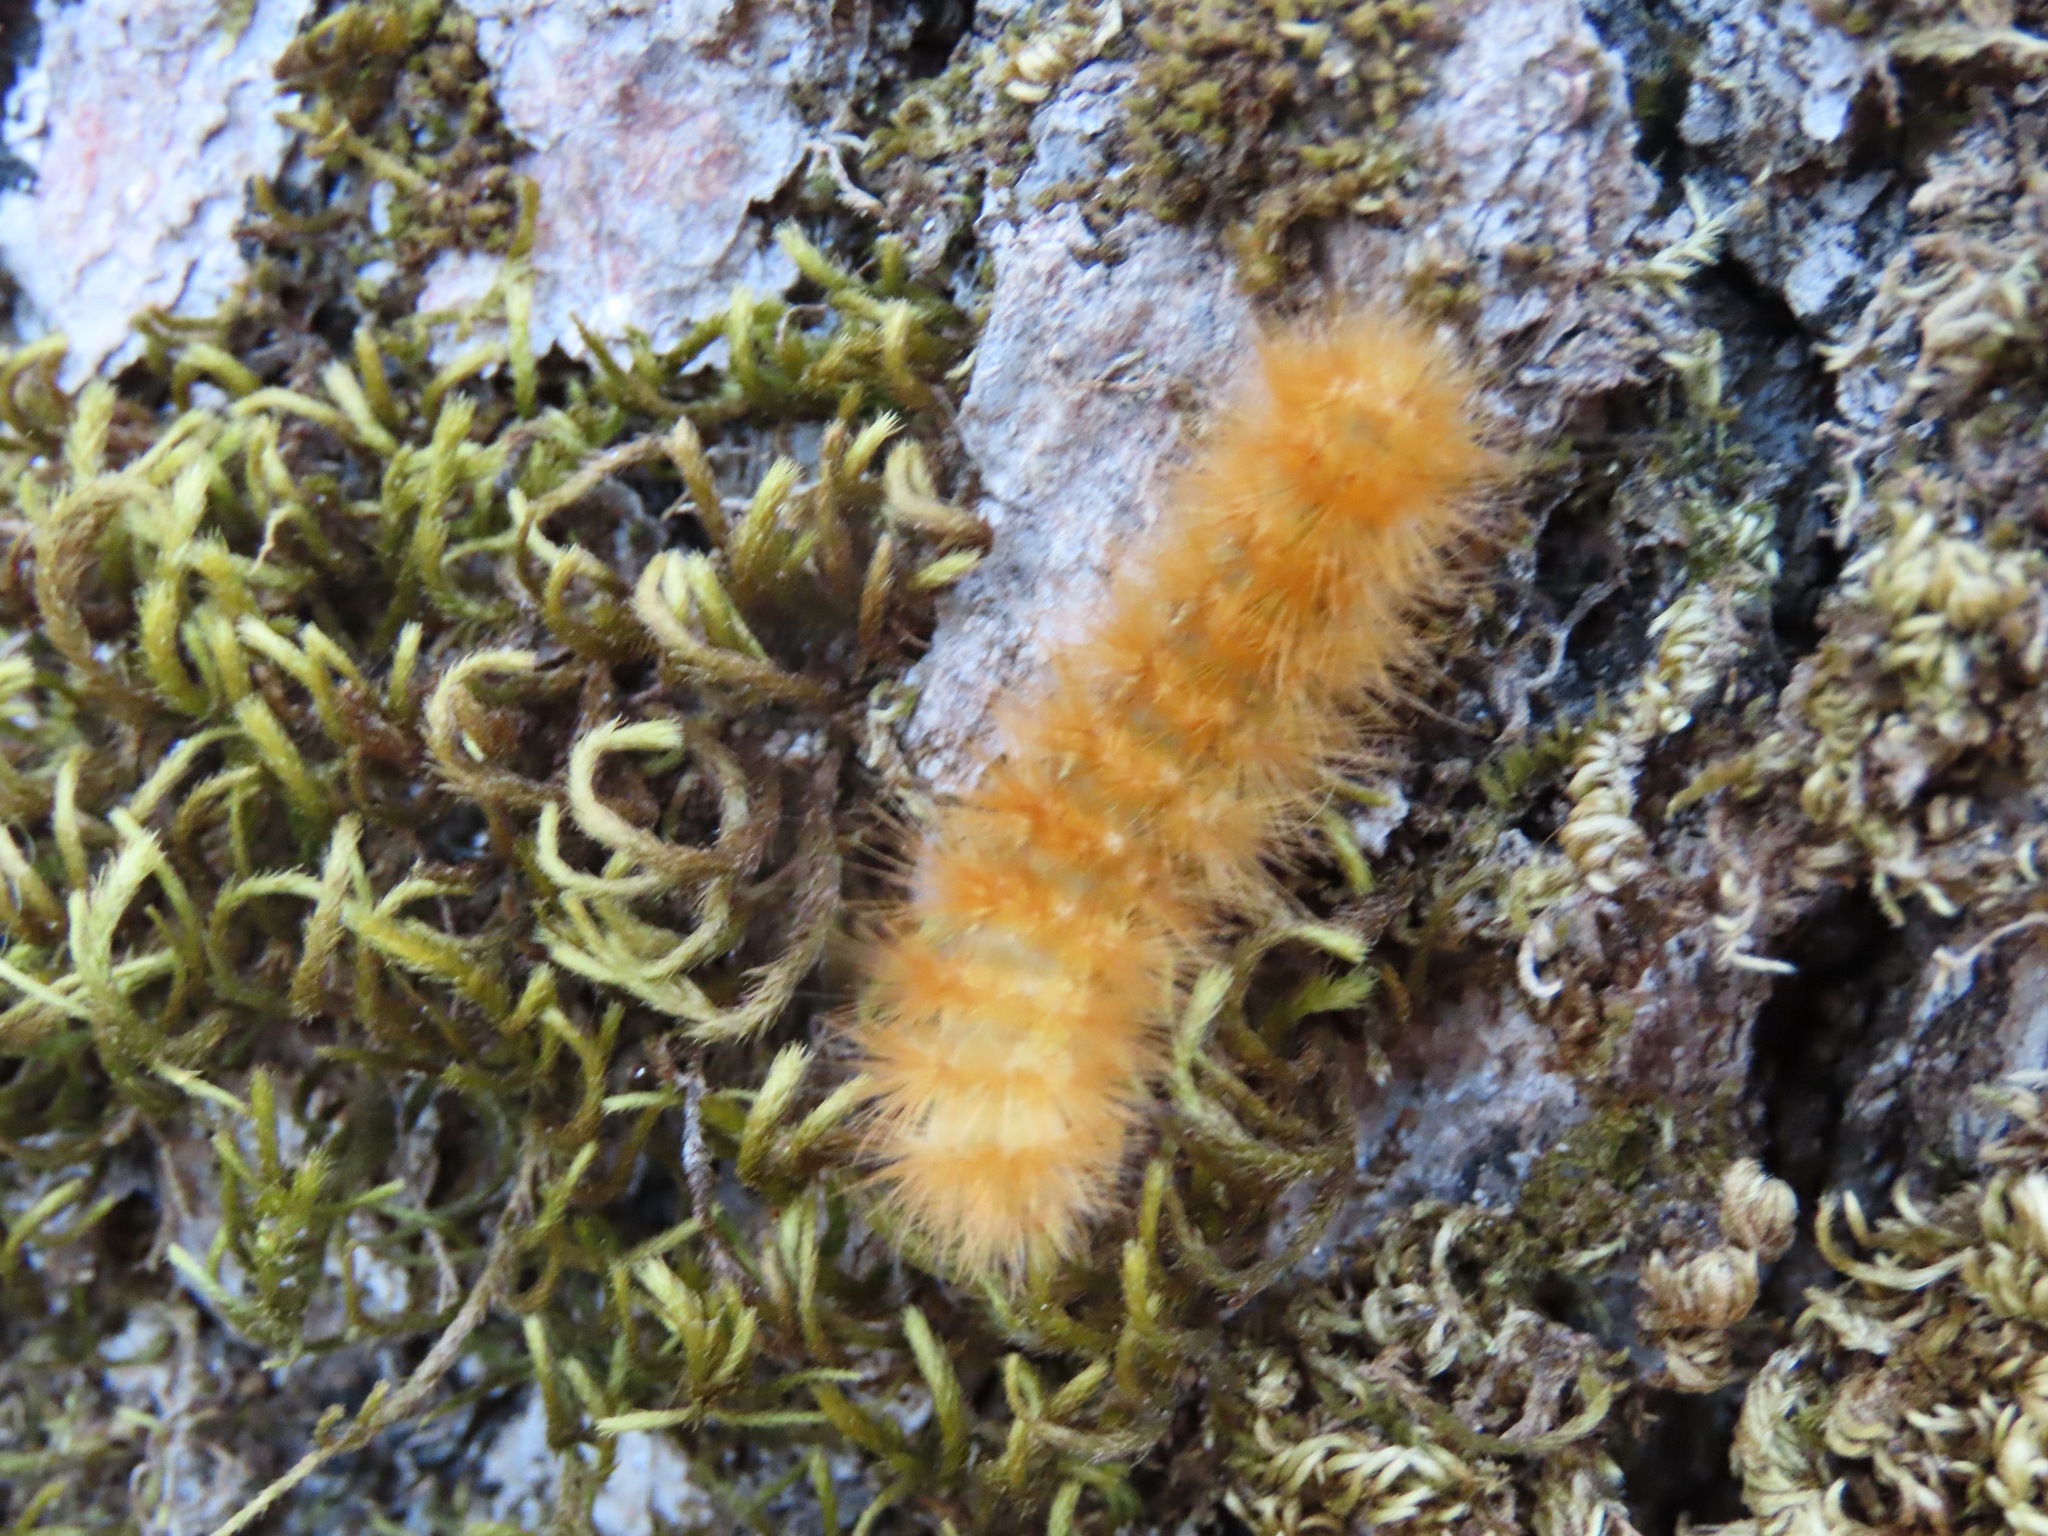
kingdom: Animalia
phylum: Arthropoda
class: Insecta
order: Lepidoptera
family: Erebidae
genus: Spilosoma
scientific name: Spilosoma virginica
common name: Virginia tiger moth
